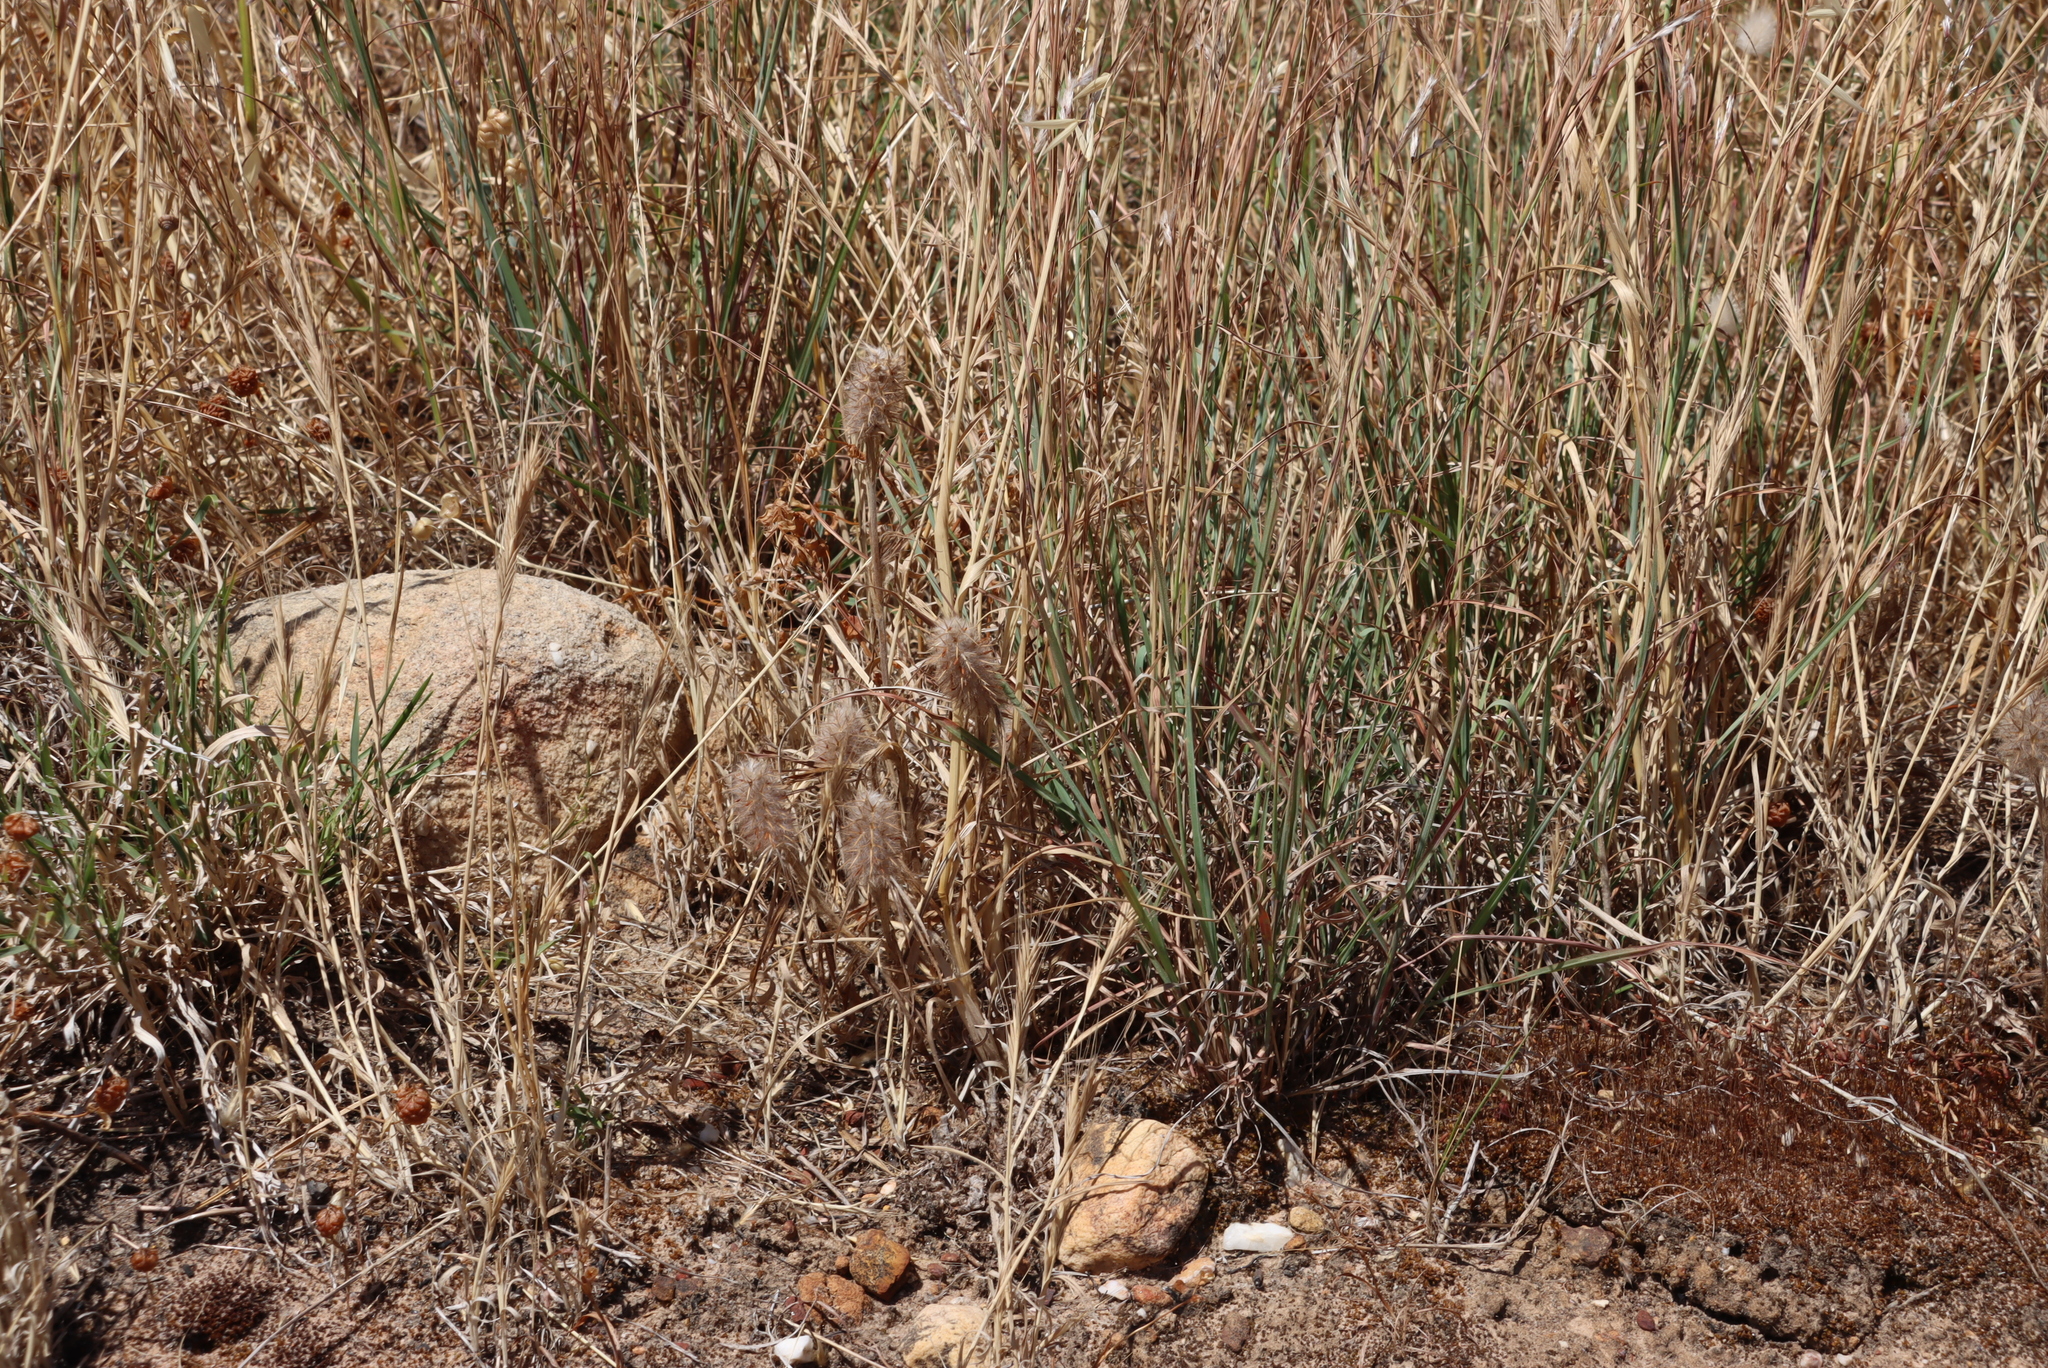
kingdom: Plantae
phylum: Tracheophyta
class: Magnoliopsida
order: Fabales
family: Fabaceae
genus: Trifolium
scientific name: Trifolium angustifolium
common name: Narrow clover
